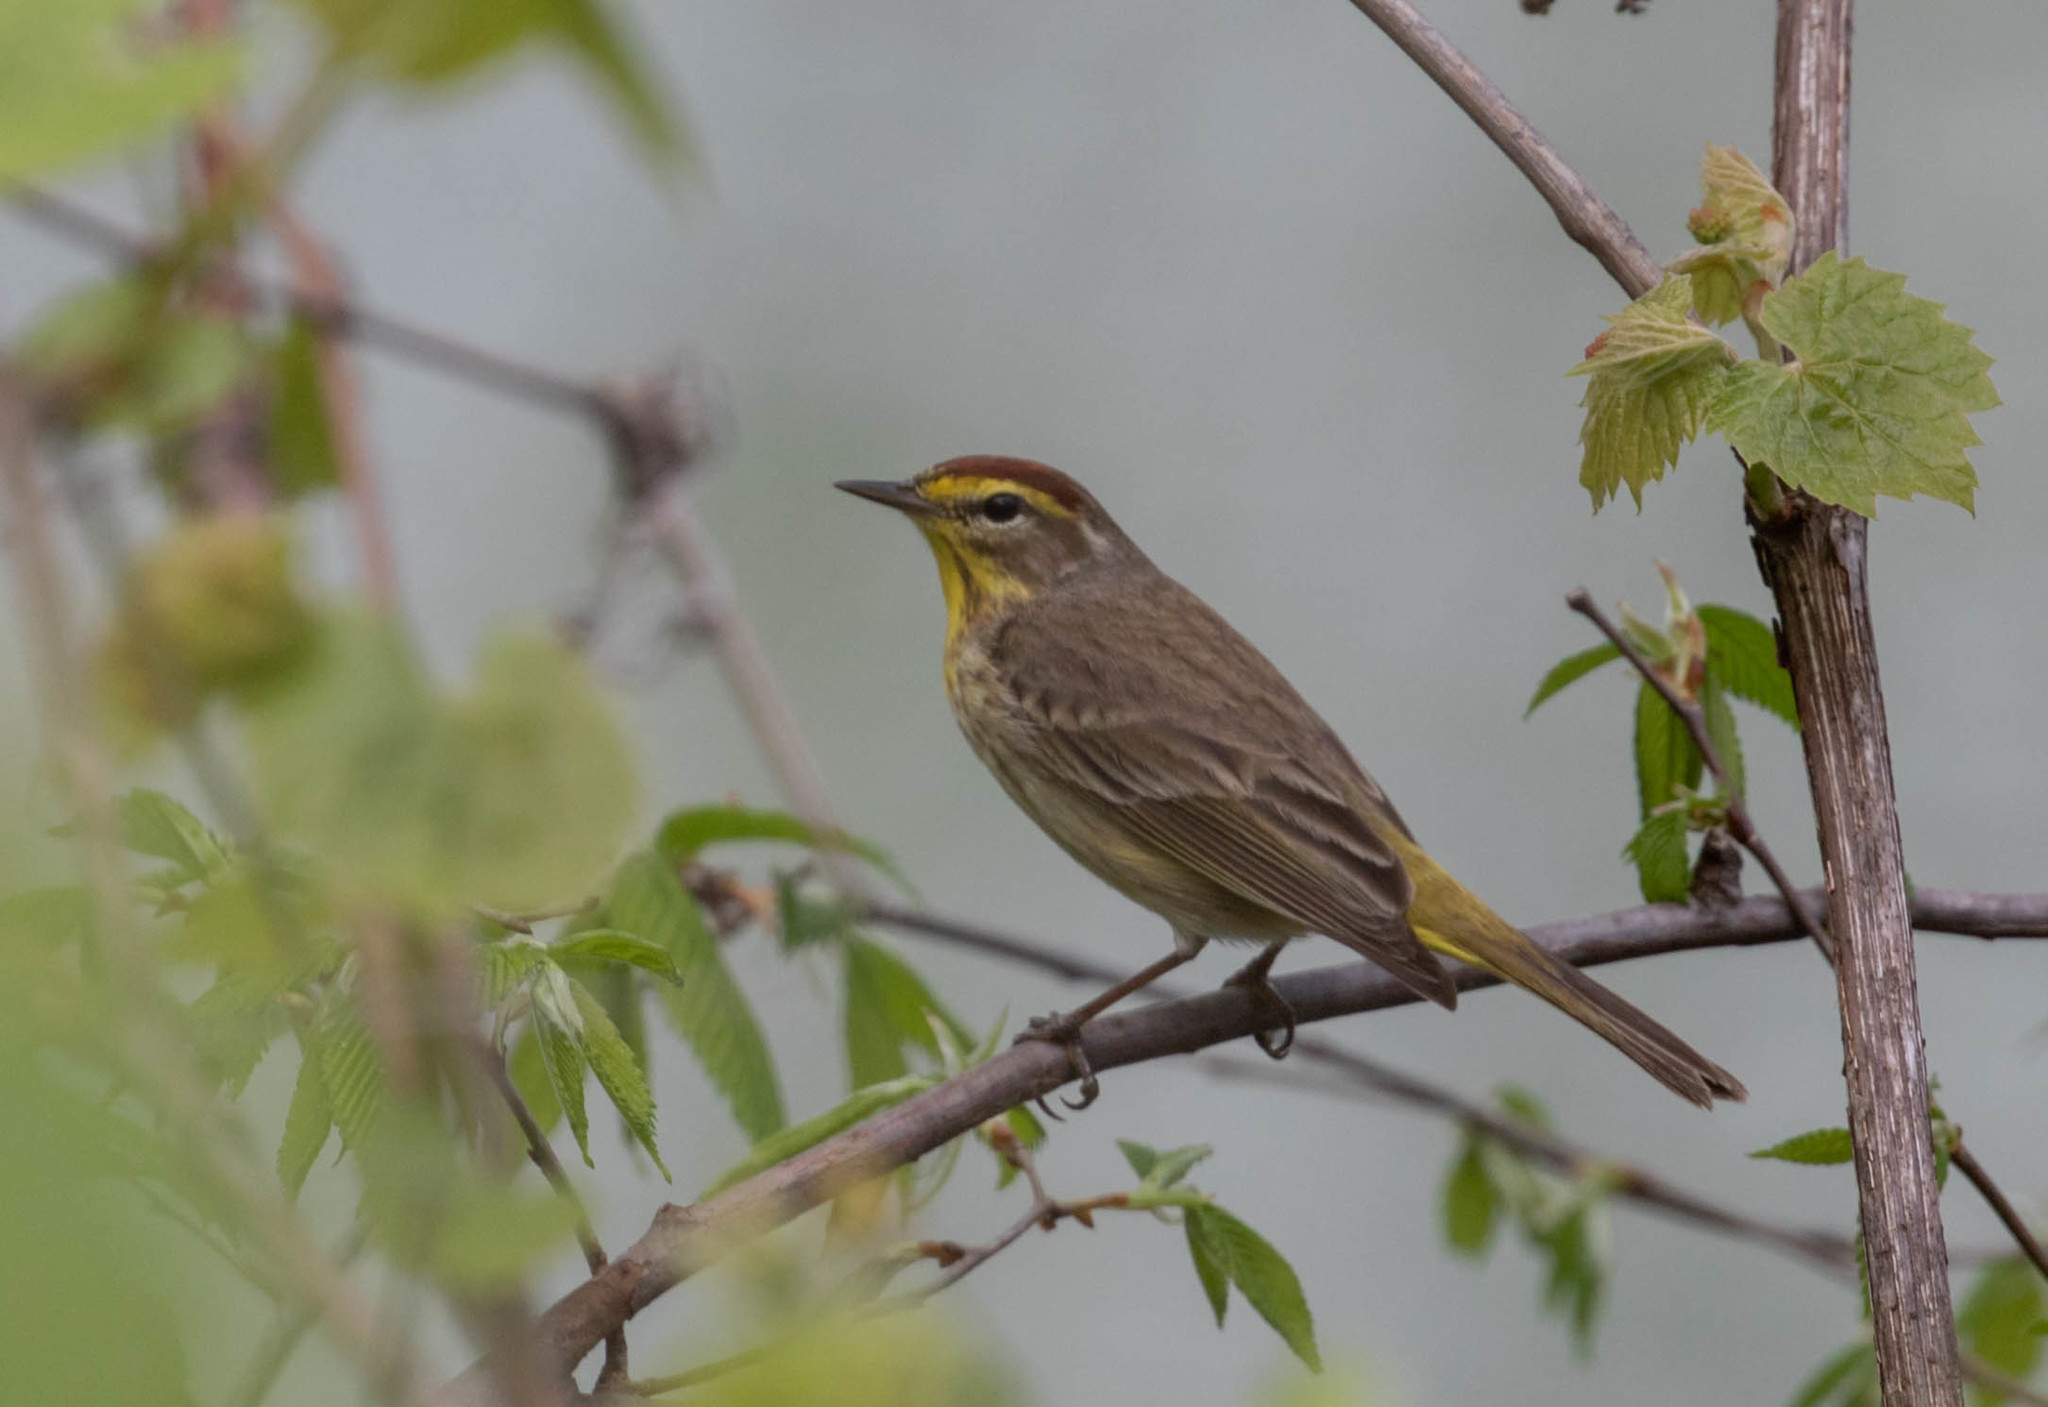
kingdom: Animalia
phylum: Chordata
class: Aves
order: Passeriformes
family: Parulidae
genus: Setophaga
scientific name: Setophaga palmarum
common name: Palm warbler
